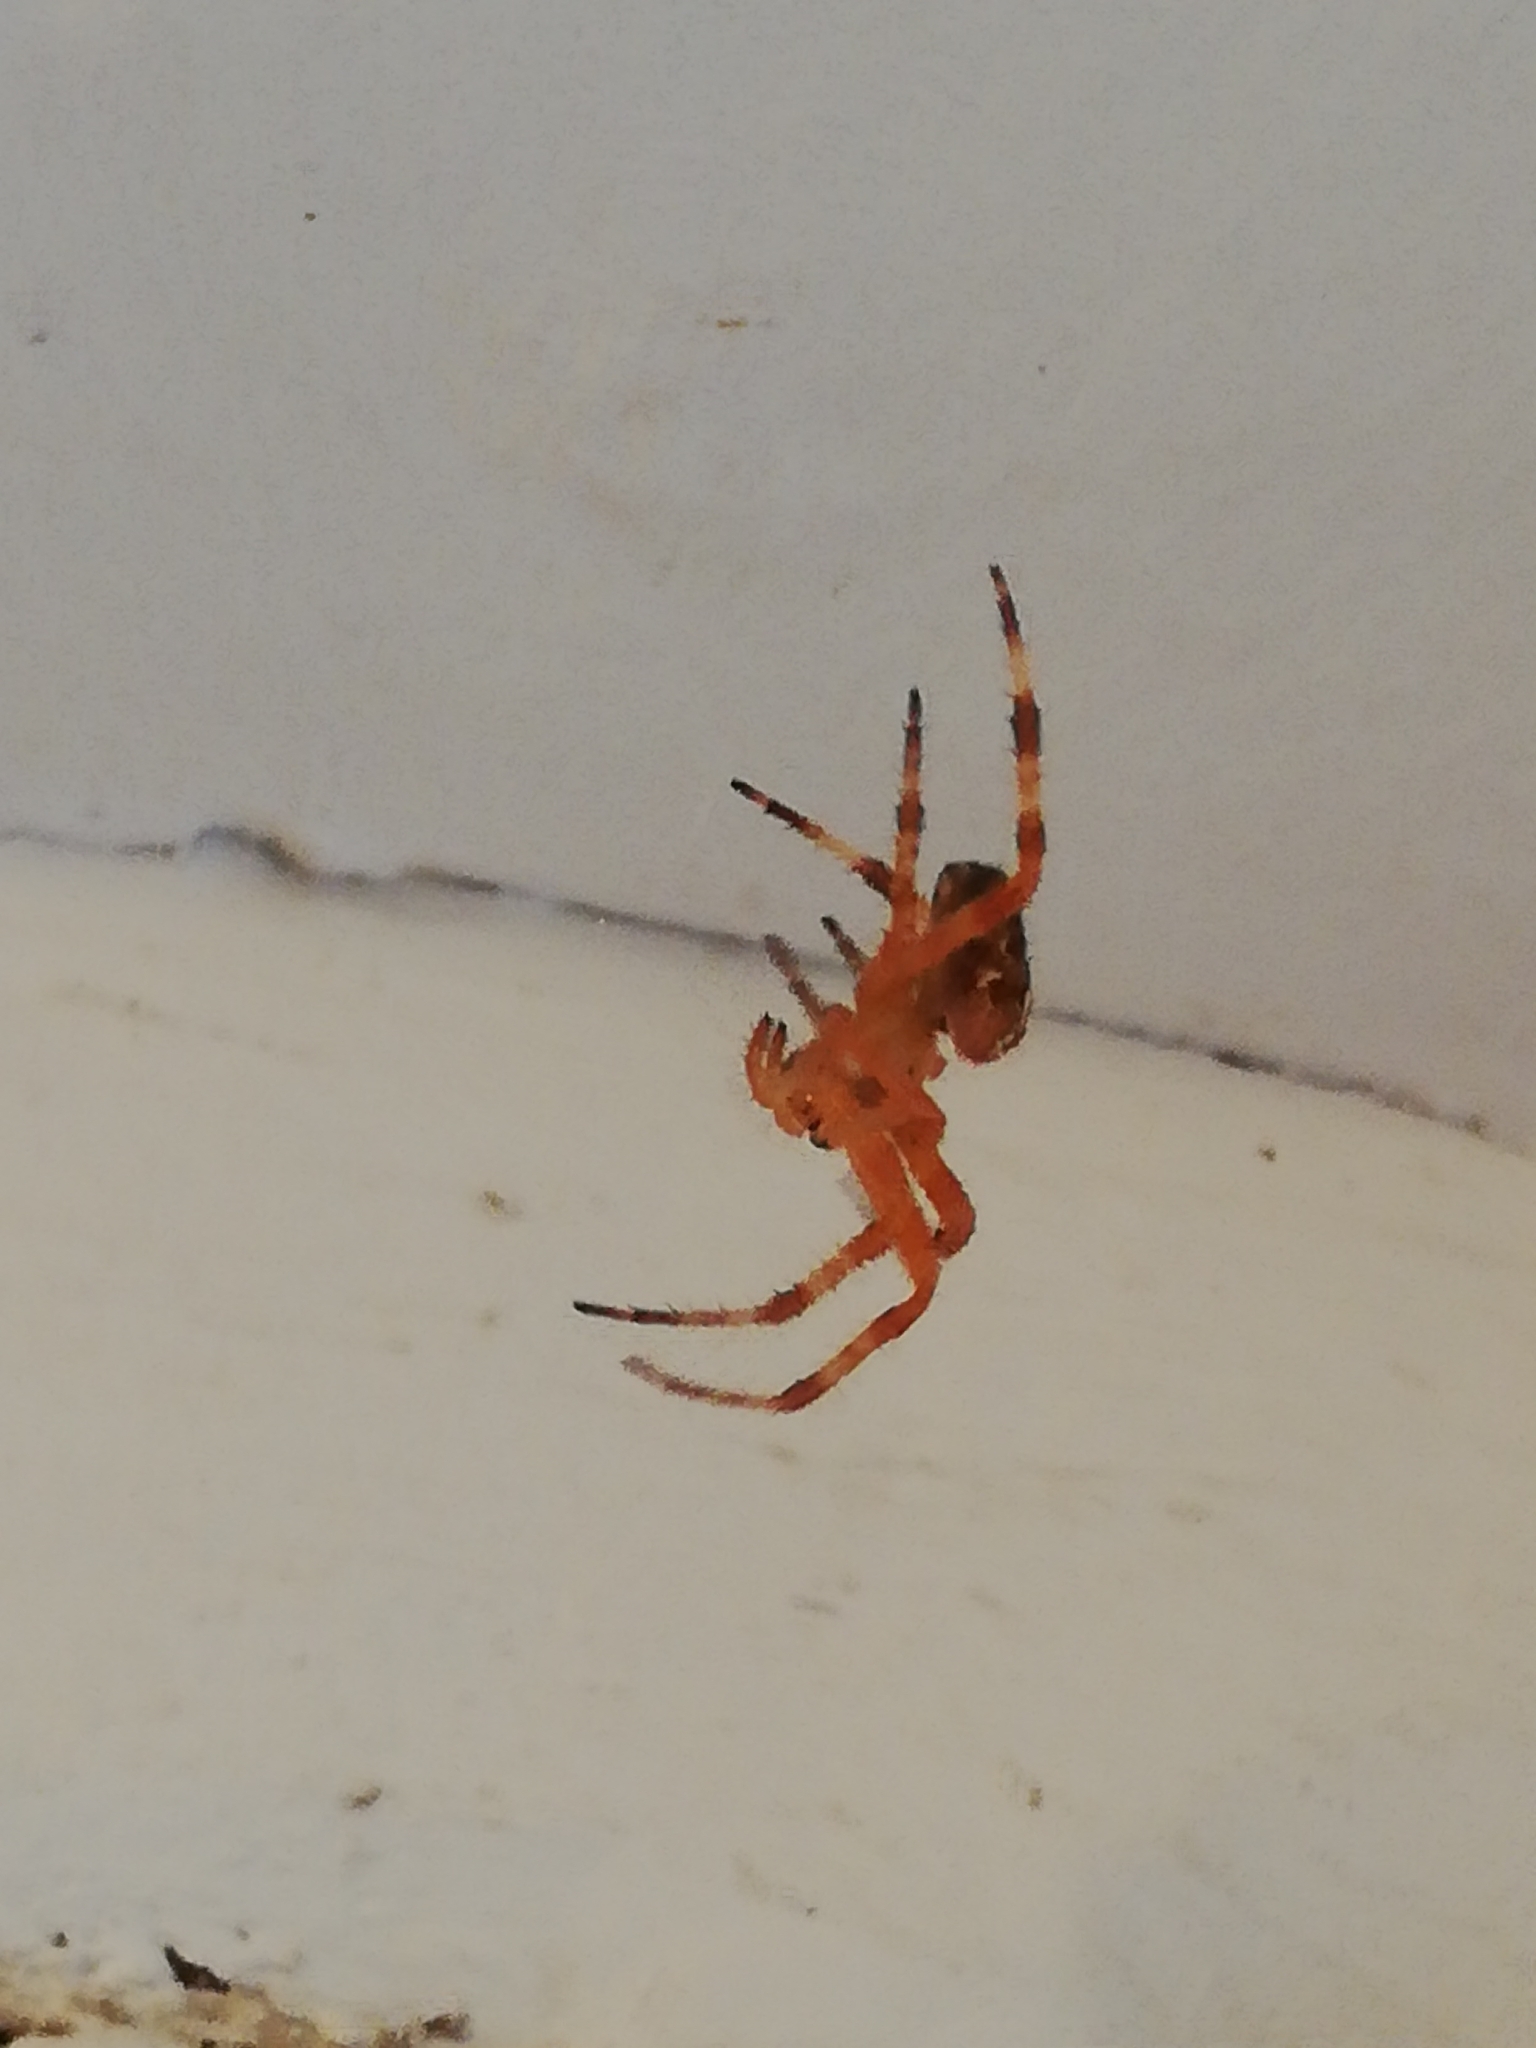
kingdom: Animalia
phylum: Arthropoda
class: Arachnida
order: Araneae
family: Araneidae
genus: Araneus
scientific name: Araneus diadematus
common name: Cross orbweaver
